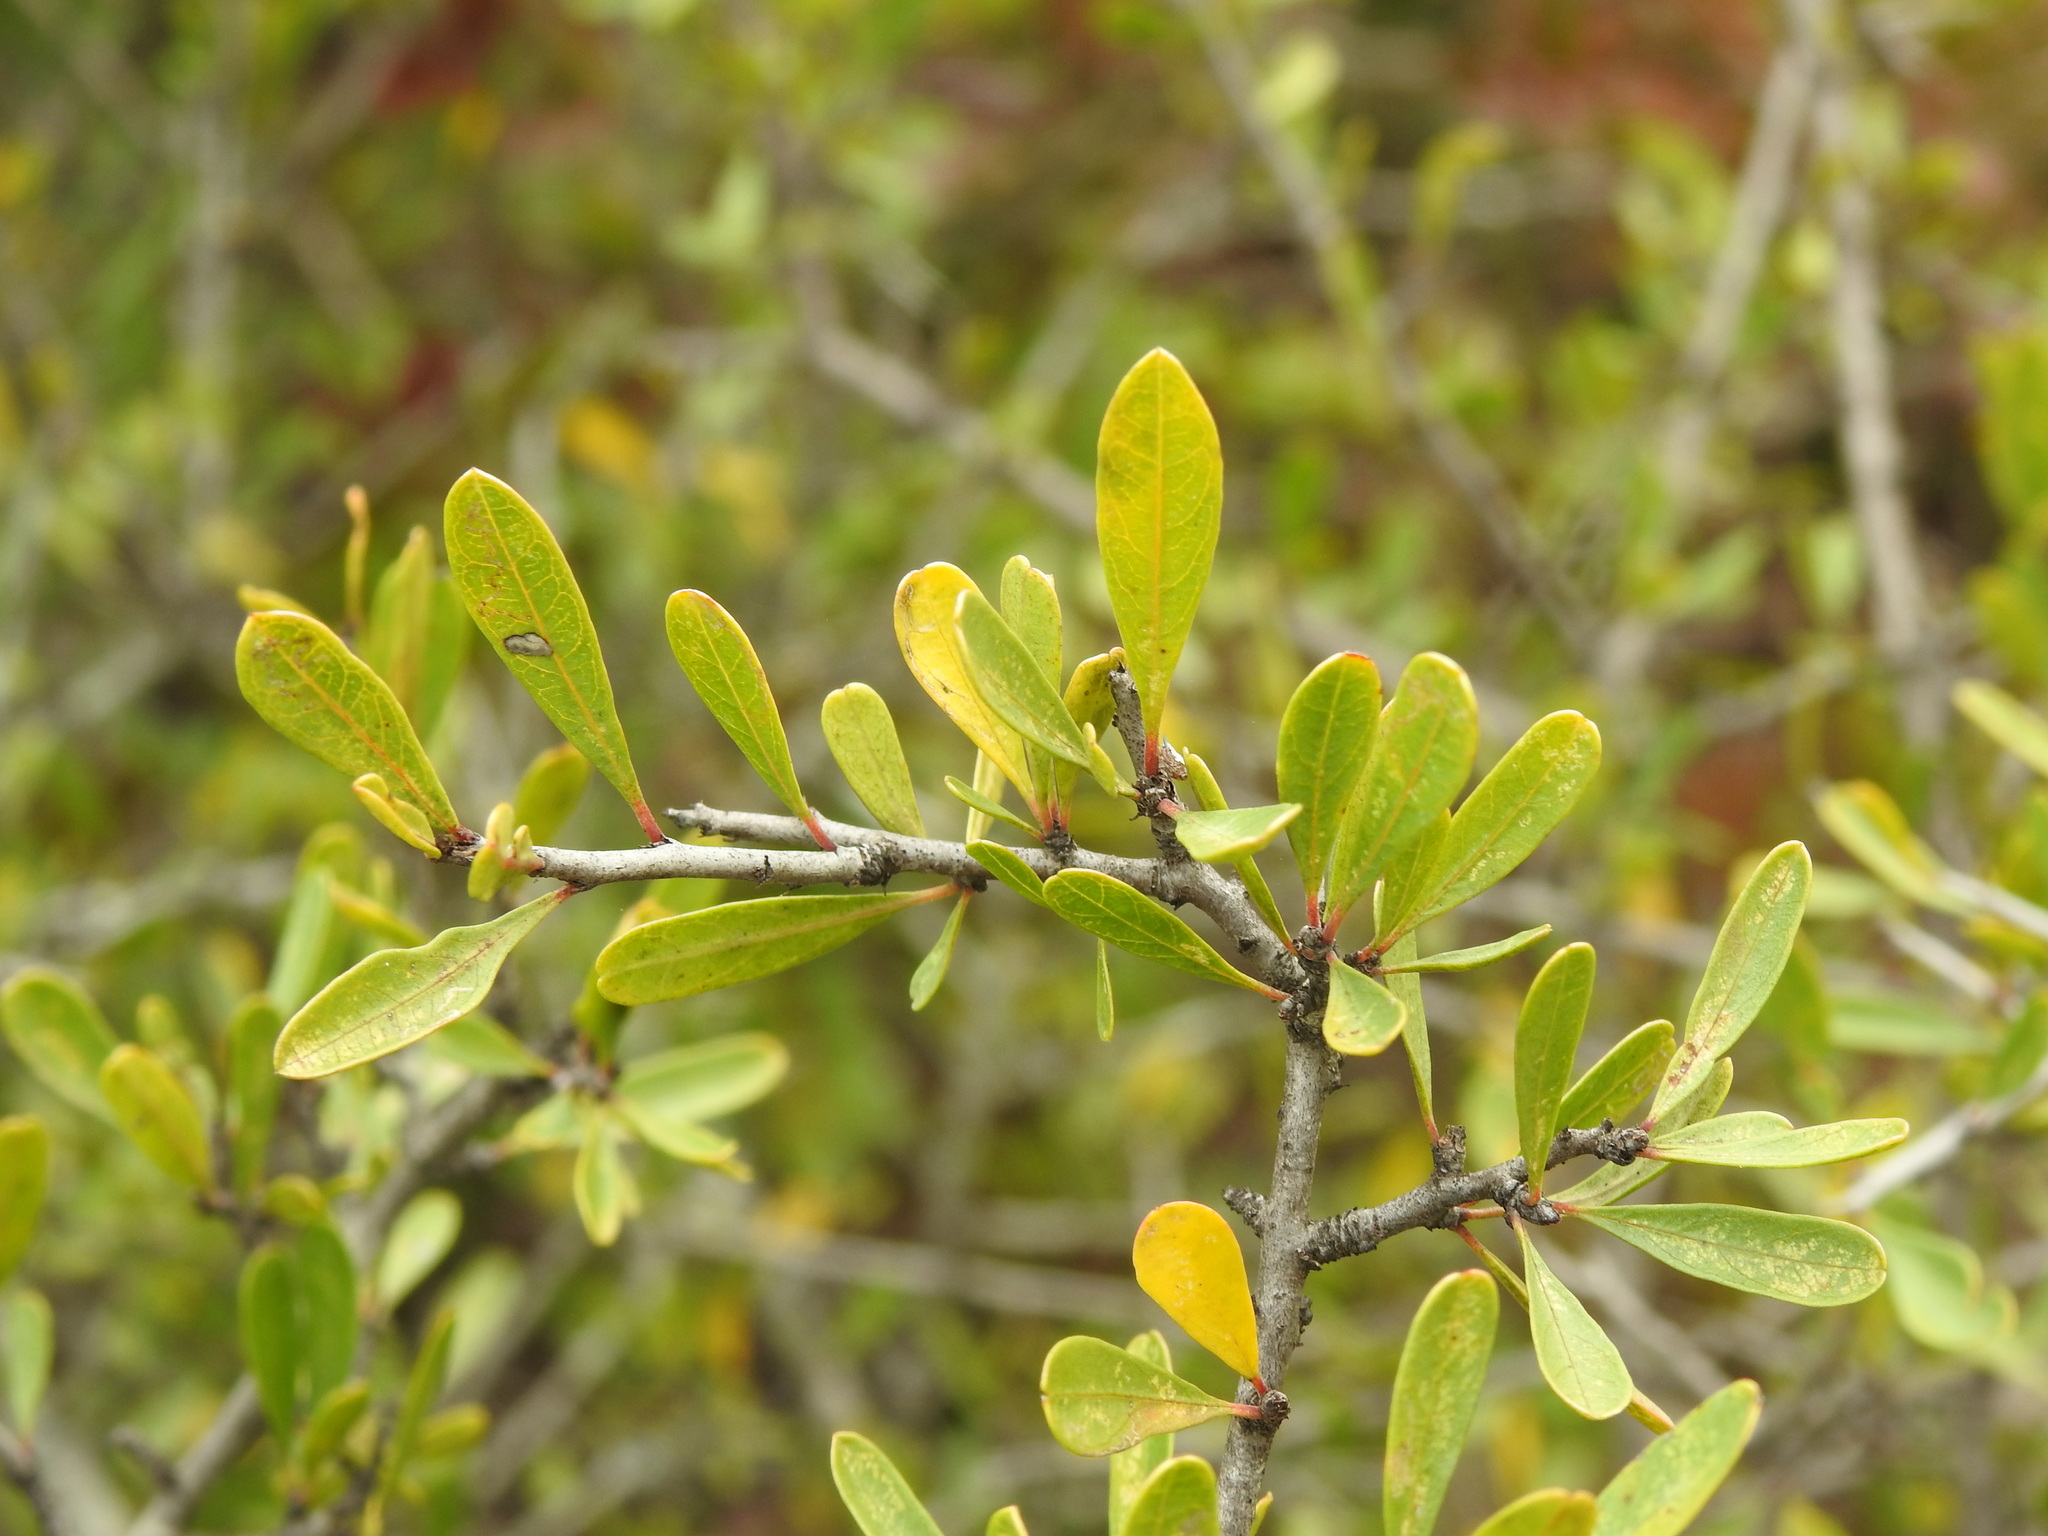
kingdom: Plantae
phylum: Tracheophyta
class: Magnoliopsida
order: Rosales
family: Rhamnaceae
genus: Rhamnus
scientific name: Rhamnus oleoides
